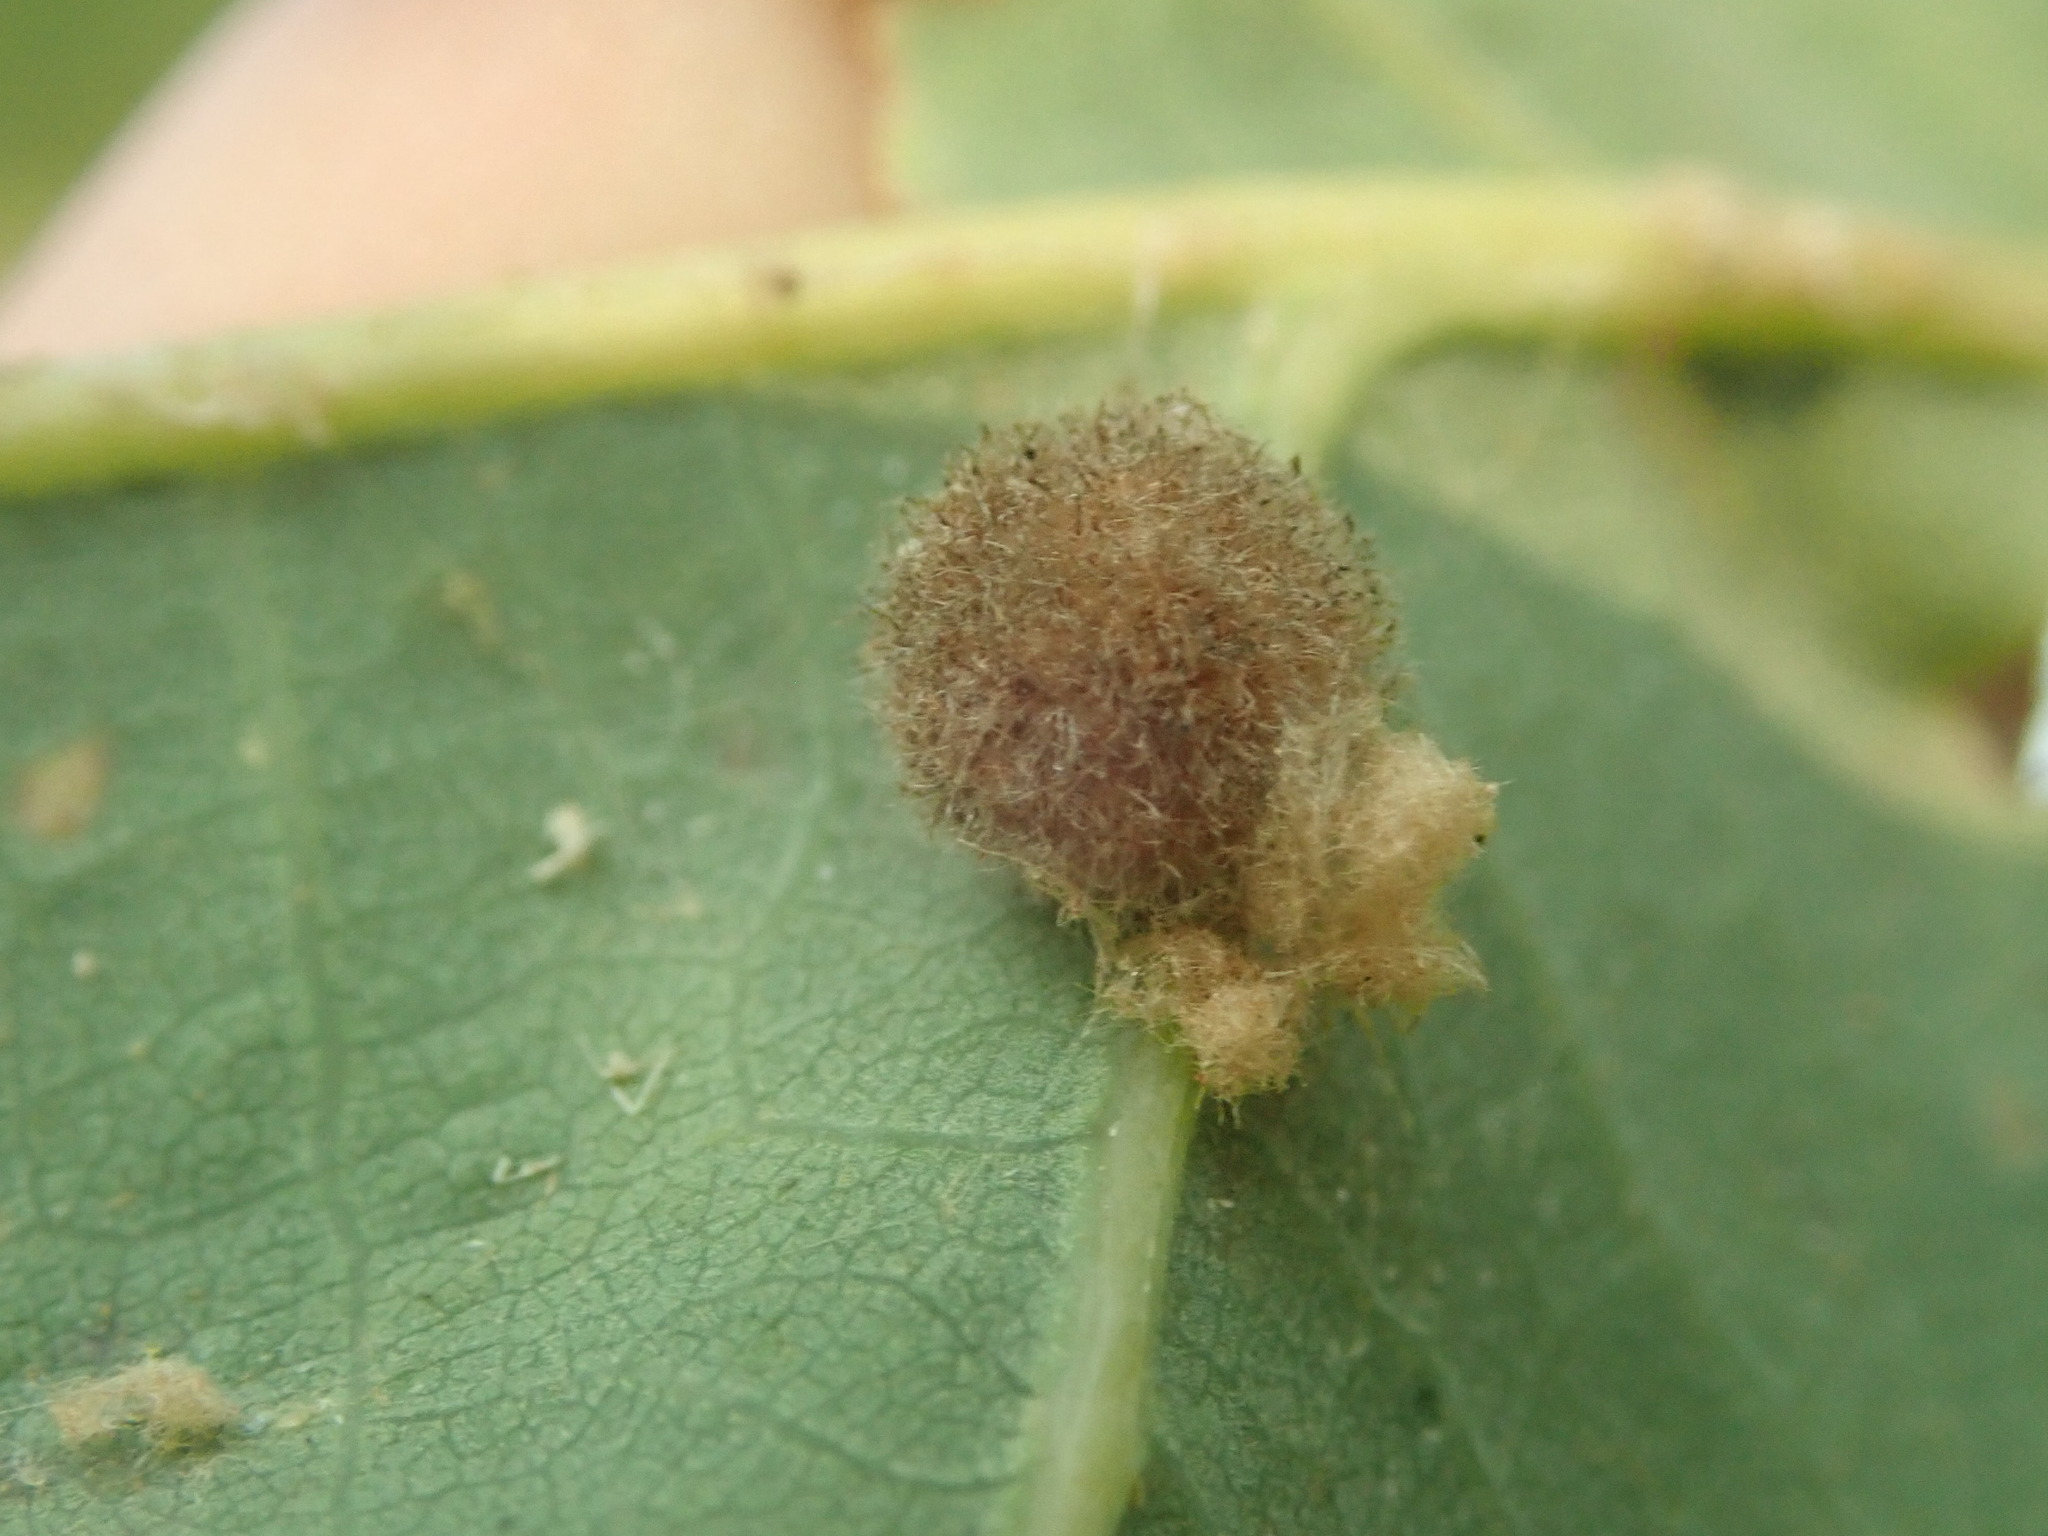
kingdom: Animalia
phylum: Arthropoda
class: Insecta
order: Hymenoptera
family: Cynipidae
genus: Philonix
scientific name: Philonix fulvicollis
